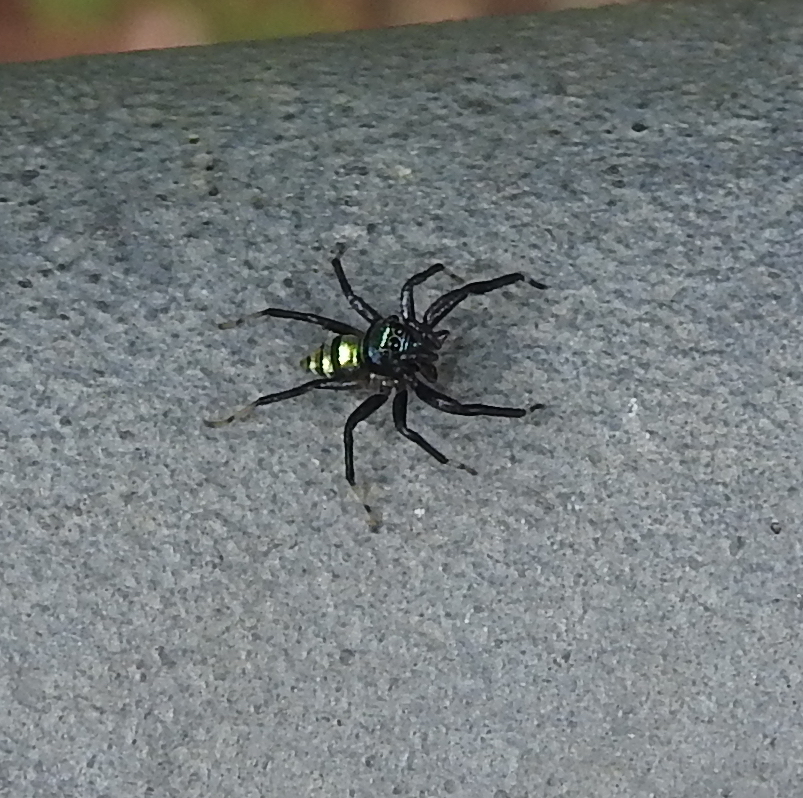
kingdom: Animalia
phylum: Arthropoda
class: Arachnida
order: Araneae
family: Salticidae
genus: Phintella
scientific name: Phintella vittata
